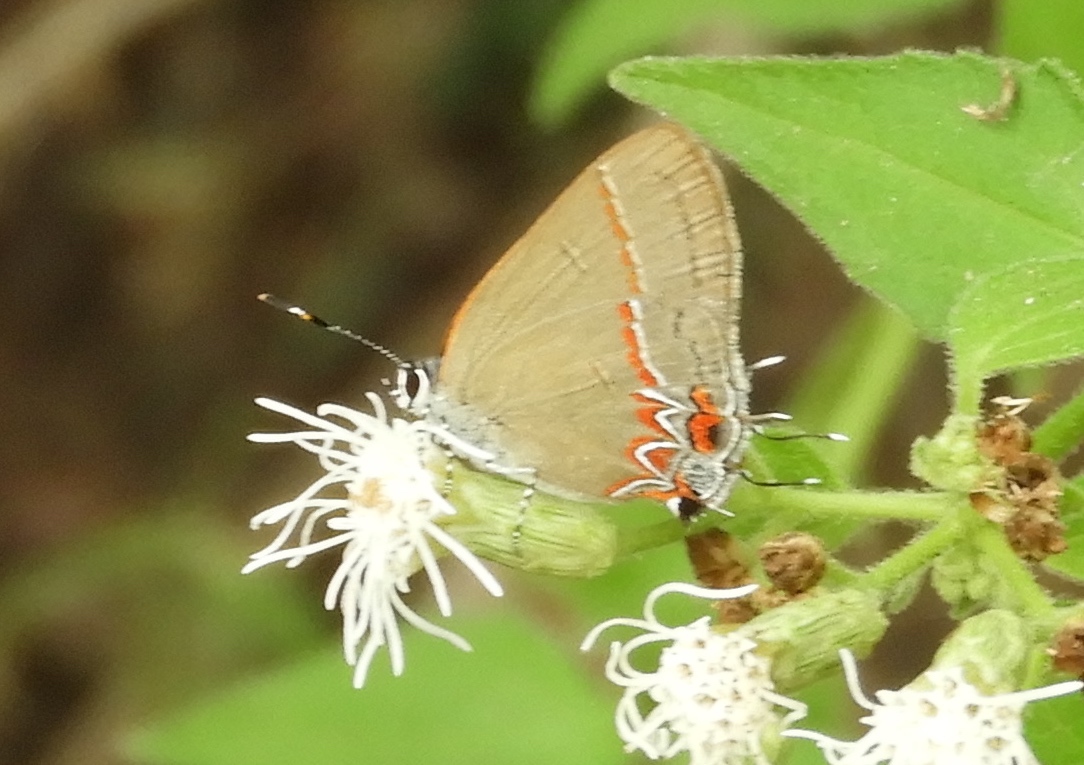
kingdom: Animalia
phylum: Arthropoda
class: Insecta
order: Lepidoptera
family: Lycaenidae
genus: Calycopis
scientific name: Calycopis
